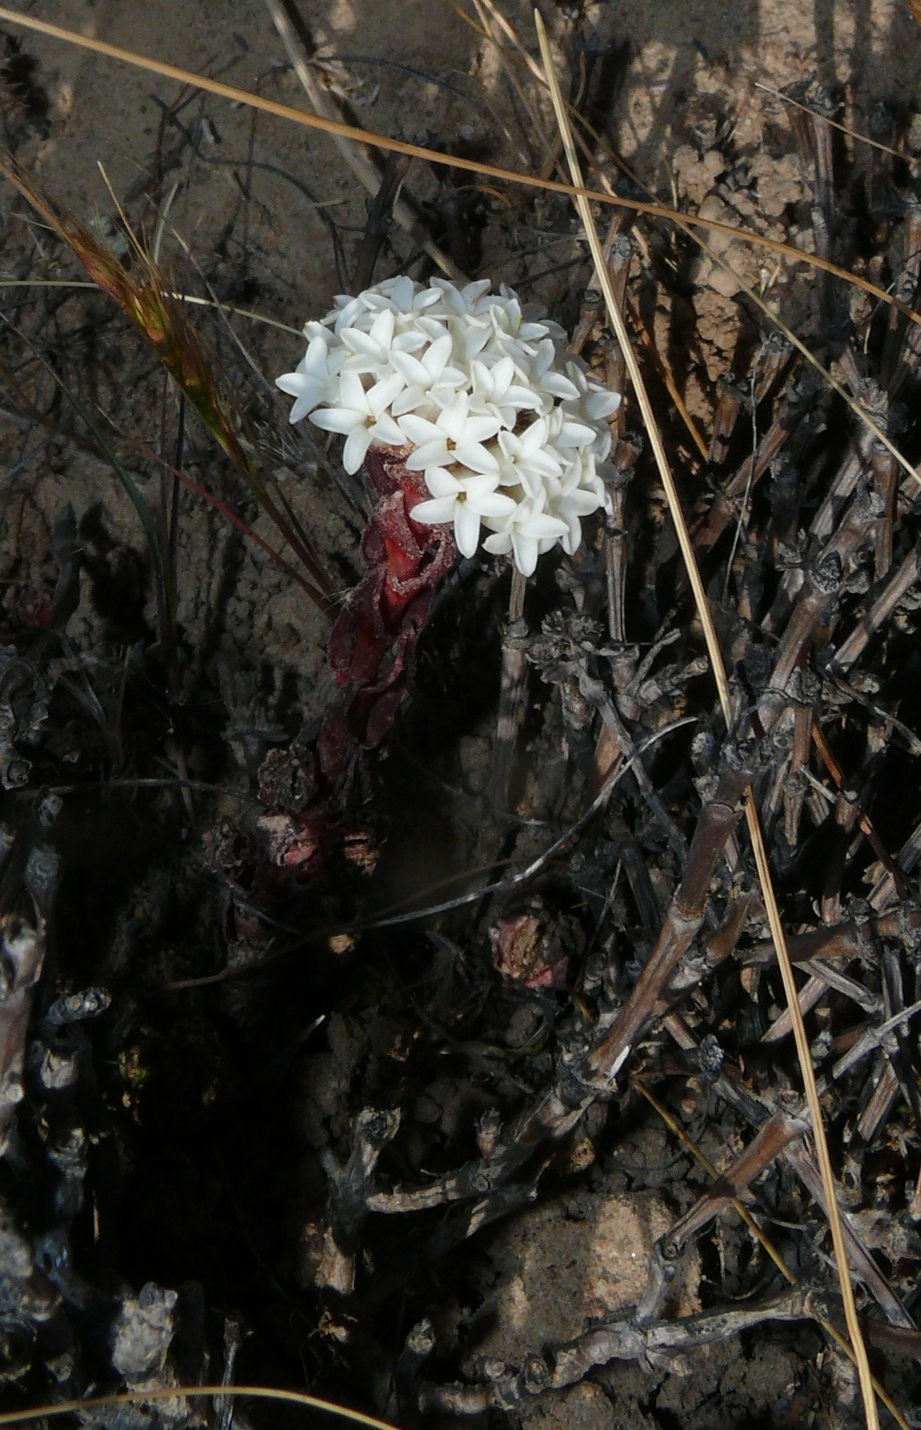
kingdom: Plantae
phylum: Tracheophyta
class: Magnoliopsida
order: Saxifragales
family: Crassulaceae
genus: Crassula
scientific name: Crassula alpestris
